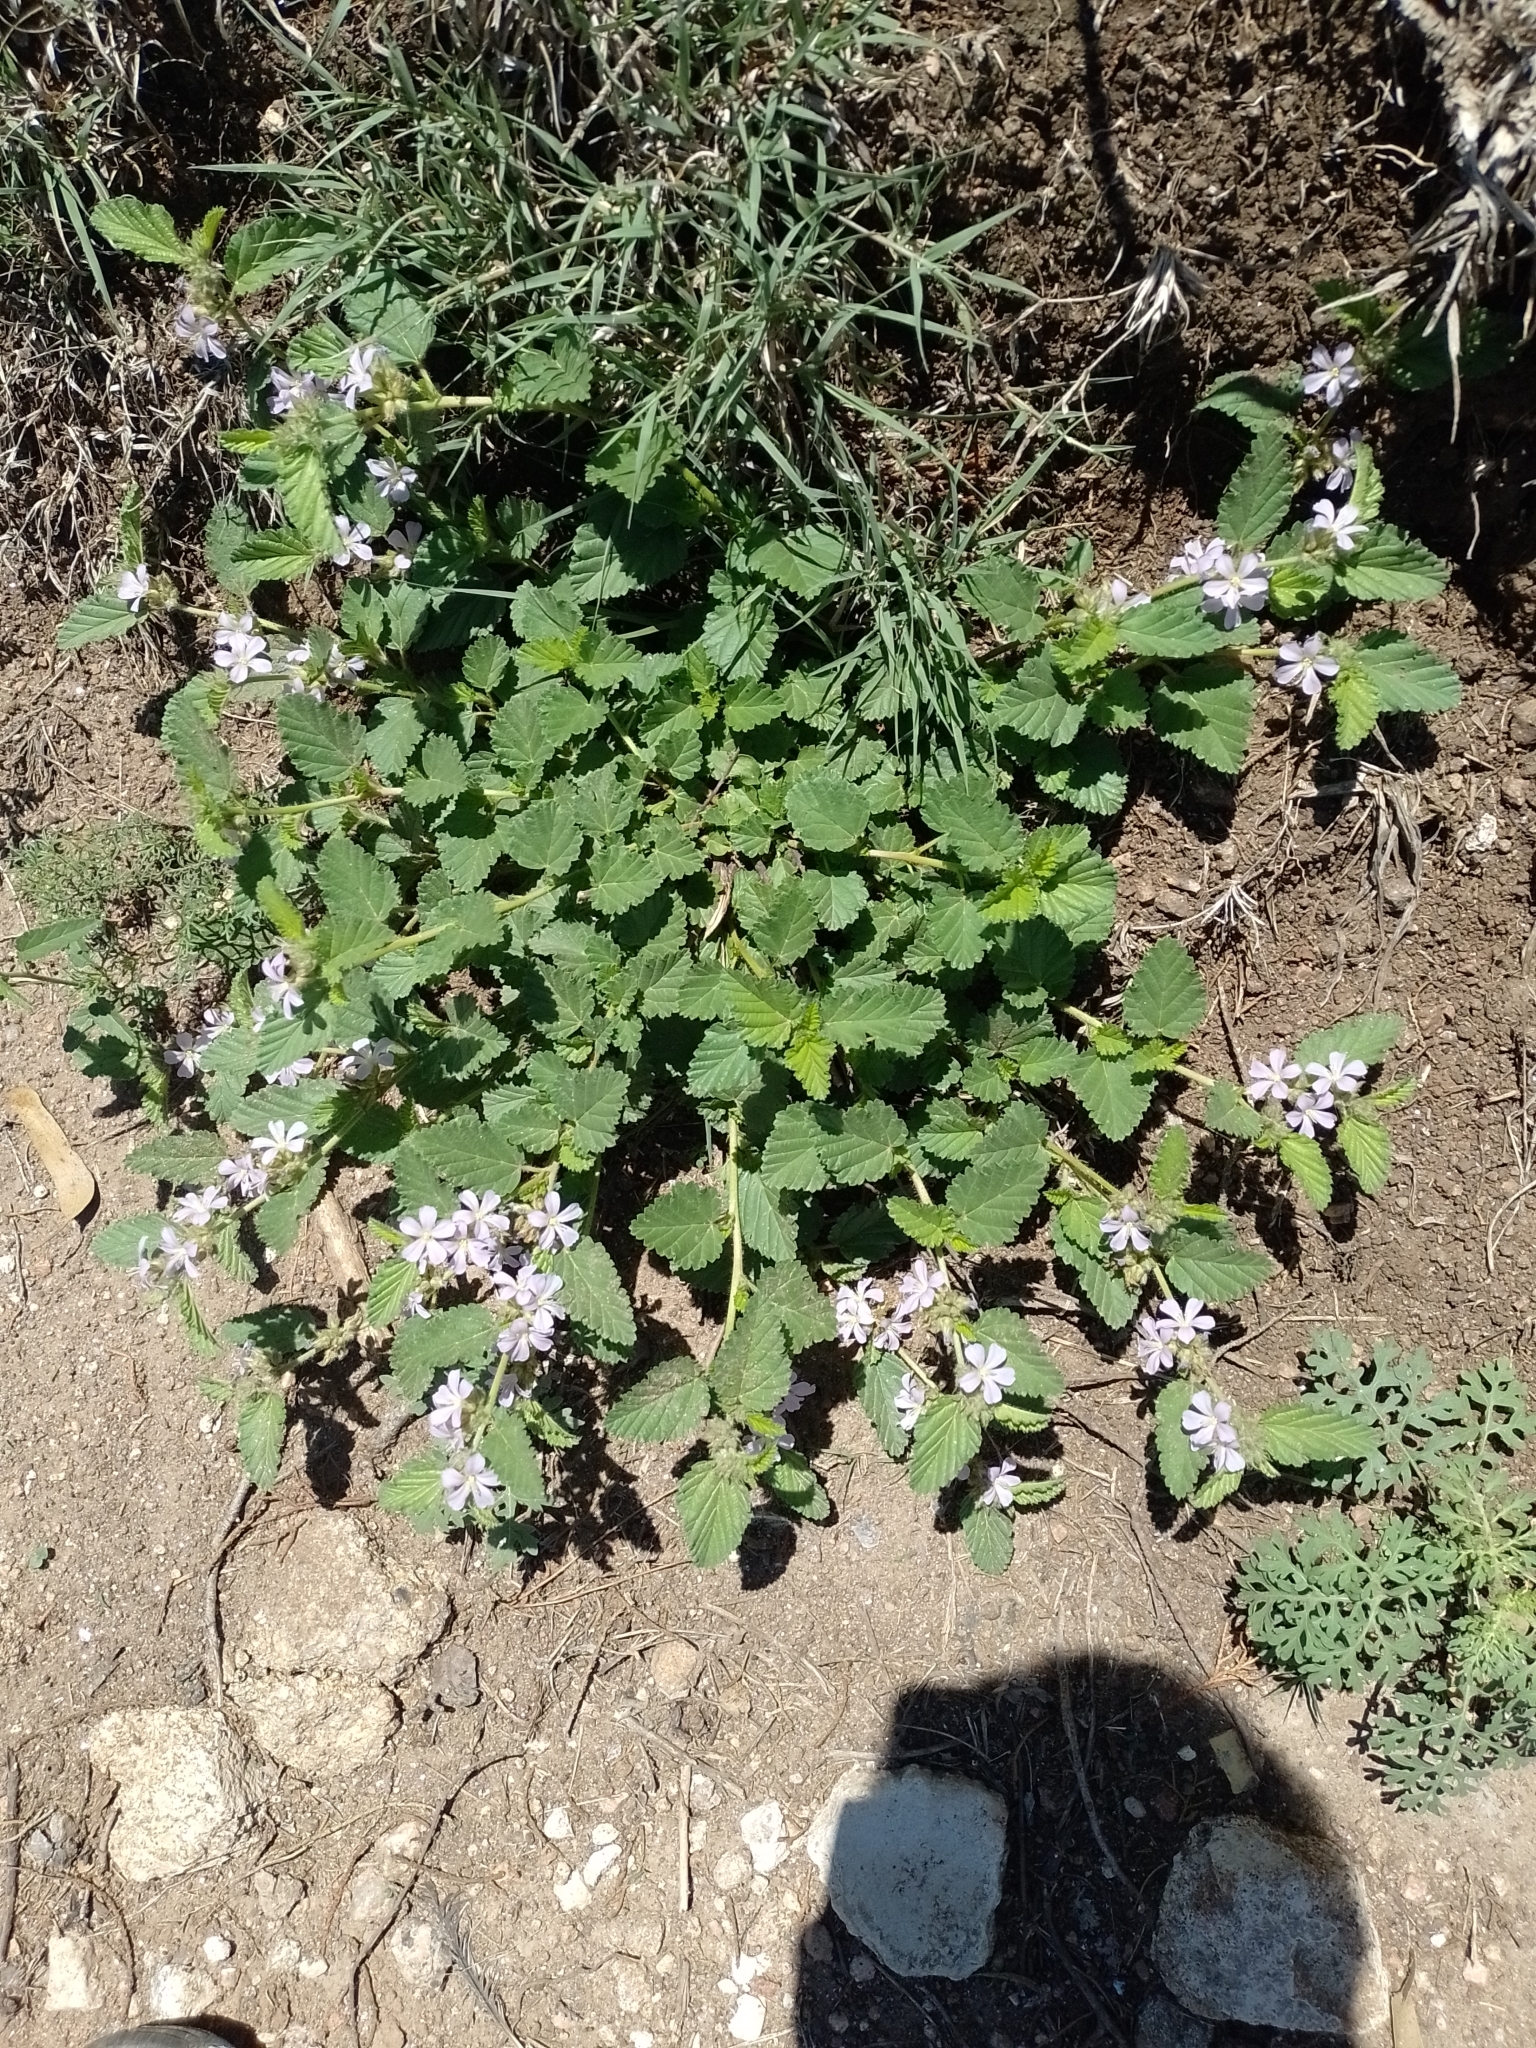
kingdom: Plantae
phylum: Tracheophyta
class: Magnoliopsida
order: Malvales
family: Malvaceae
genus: Melochia
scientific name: Melochia anomala
